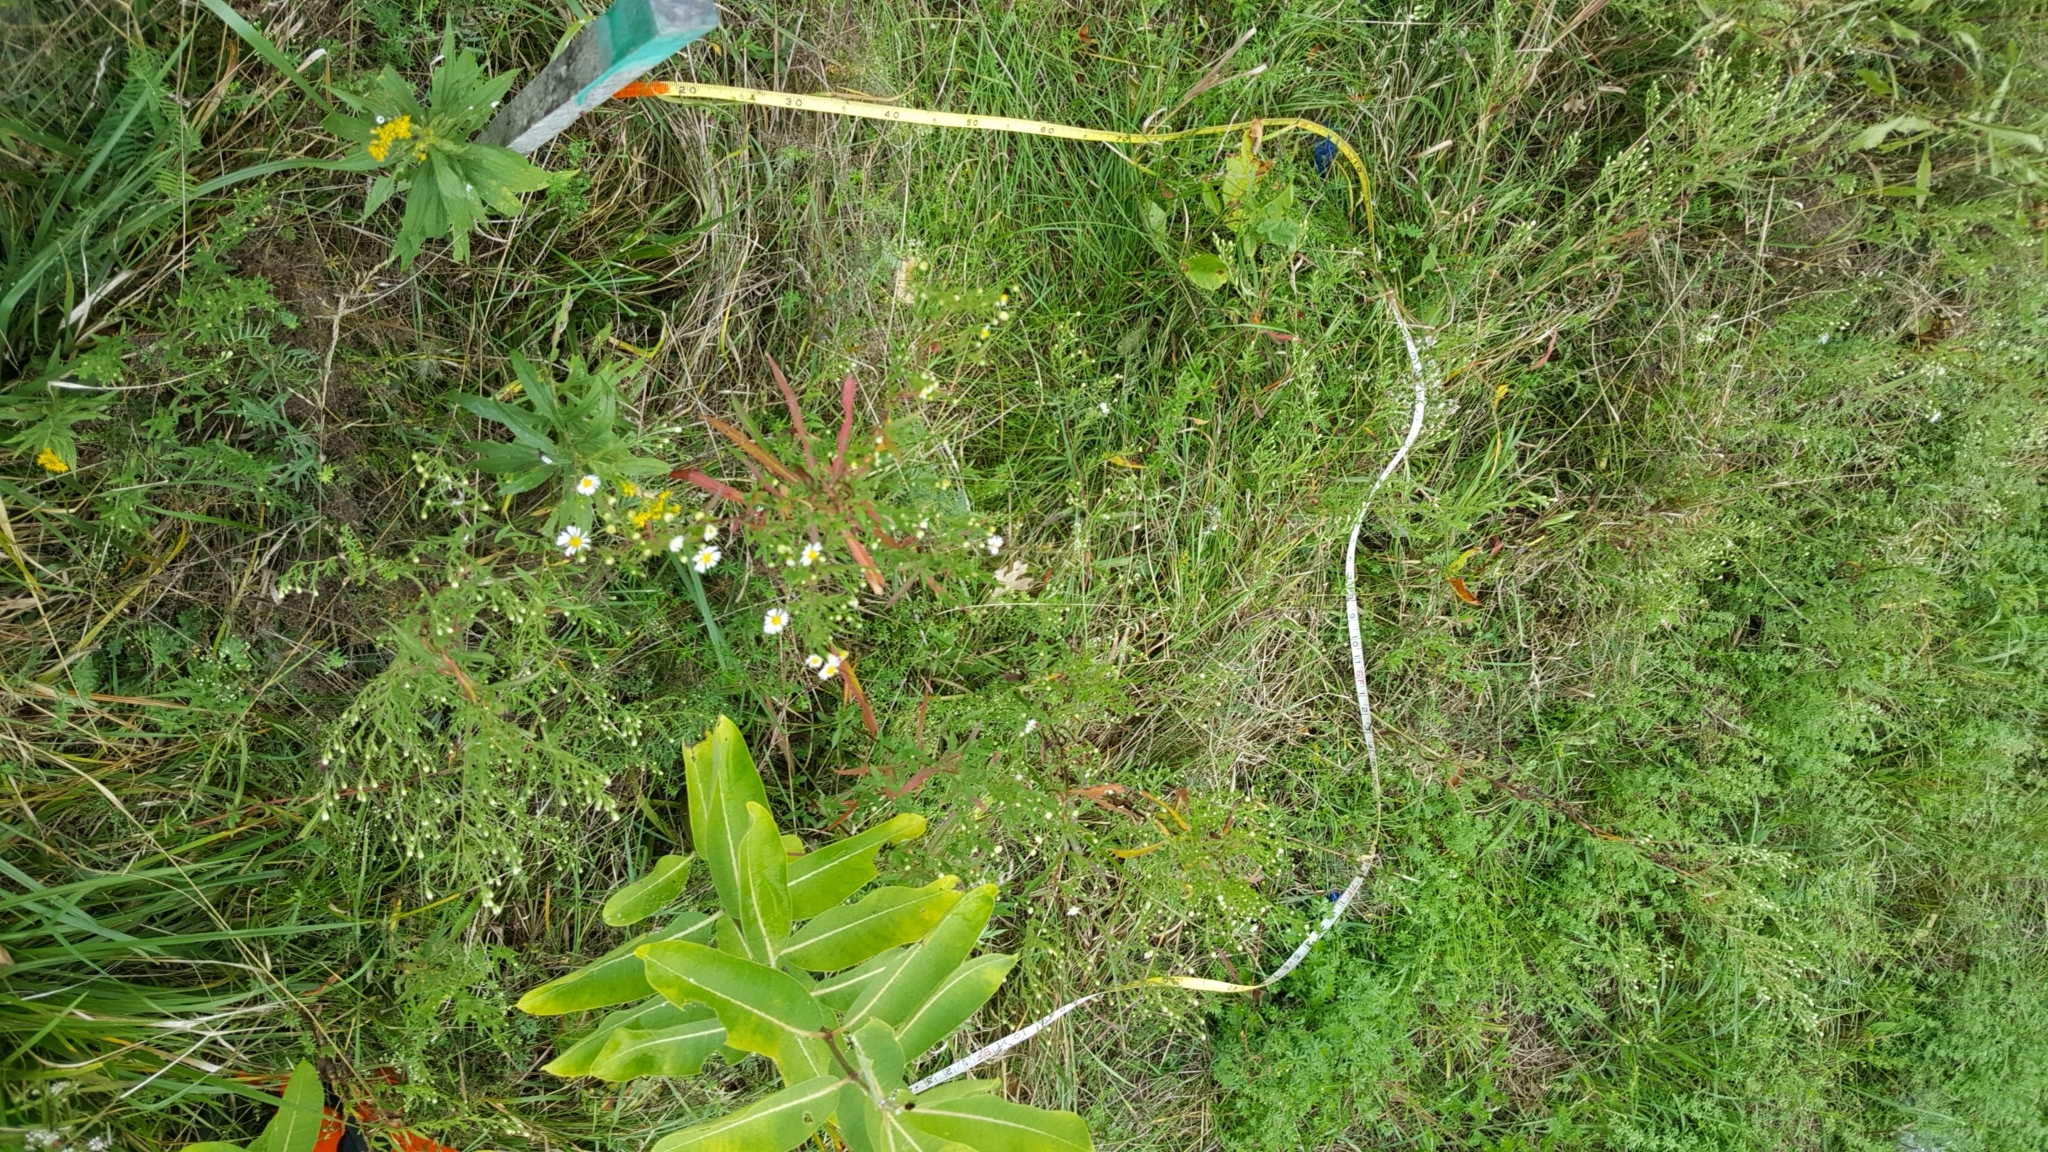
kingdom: Plantae
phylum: Tracheophyta
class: Magnoliopsida
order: Gentianales
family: Apocynaceae
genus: Asclepias
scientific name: Asclepias syriaca
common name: Common milkweed
